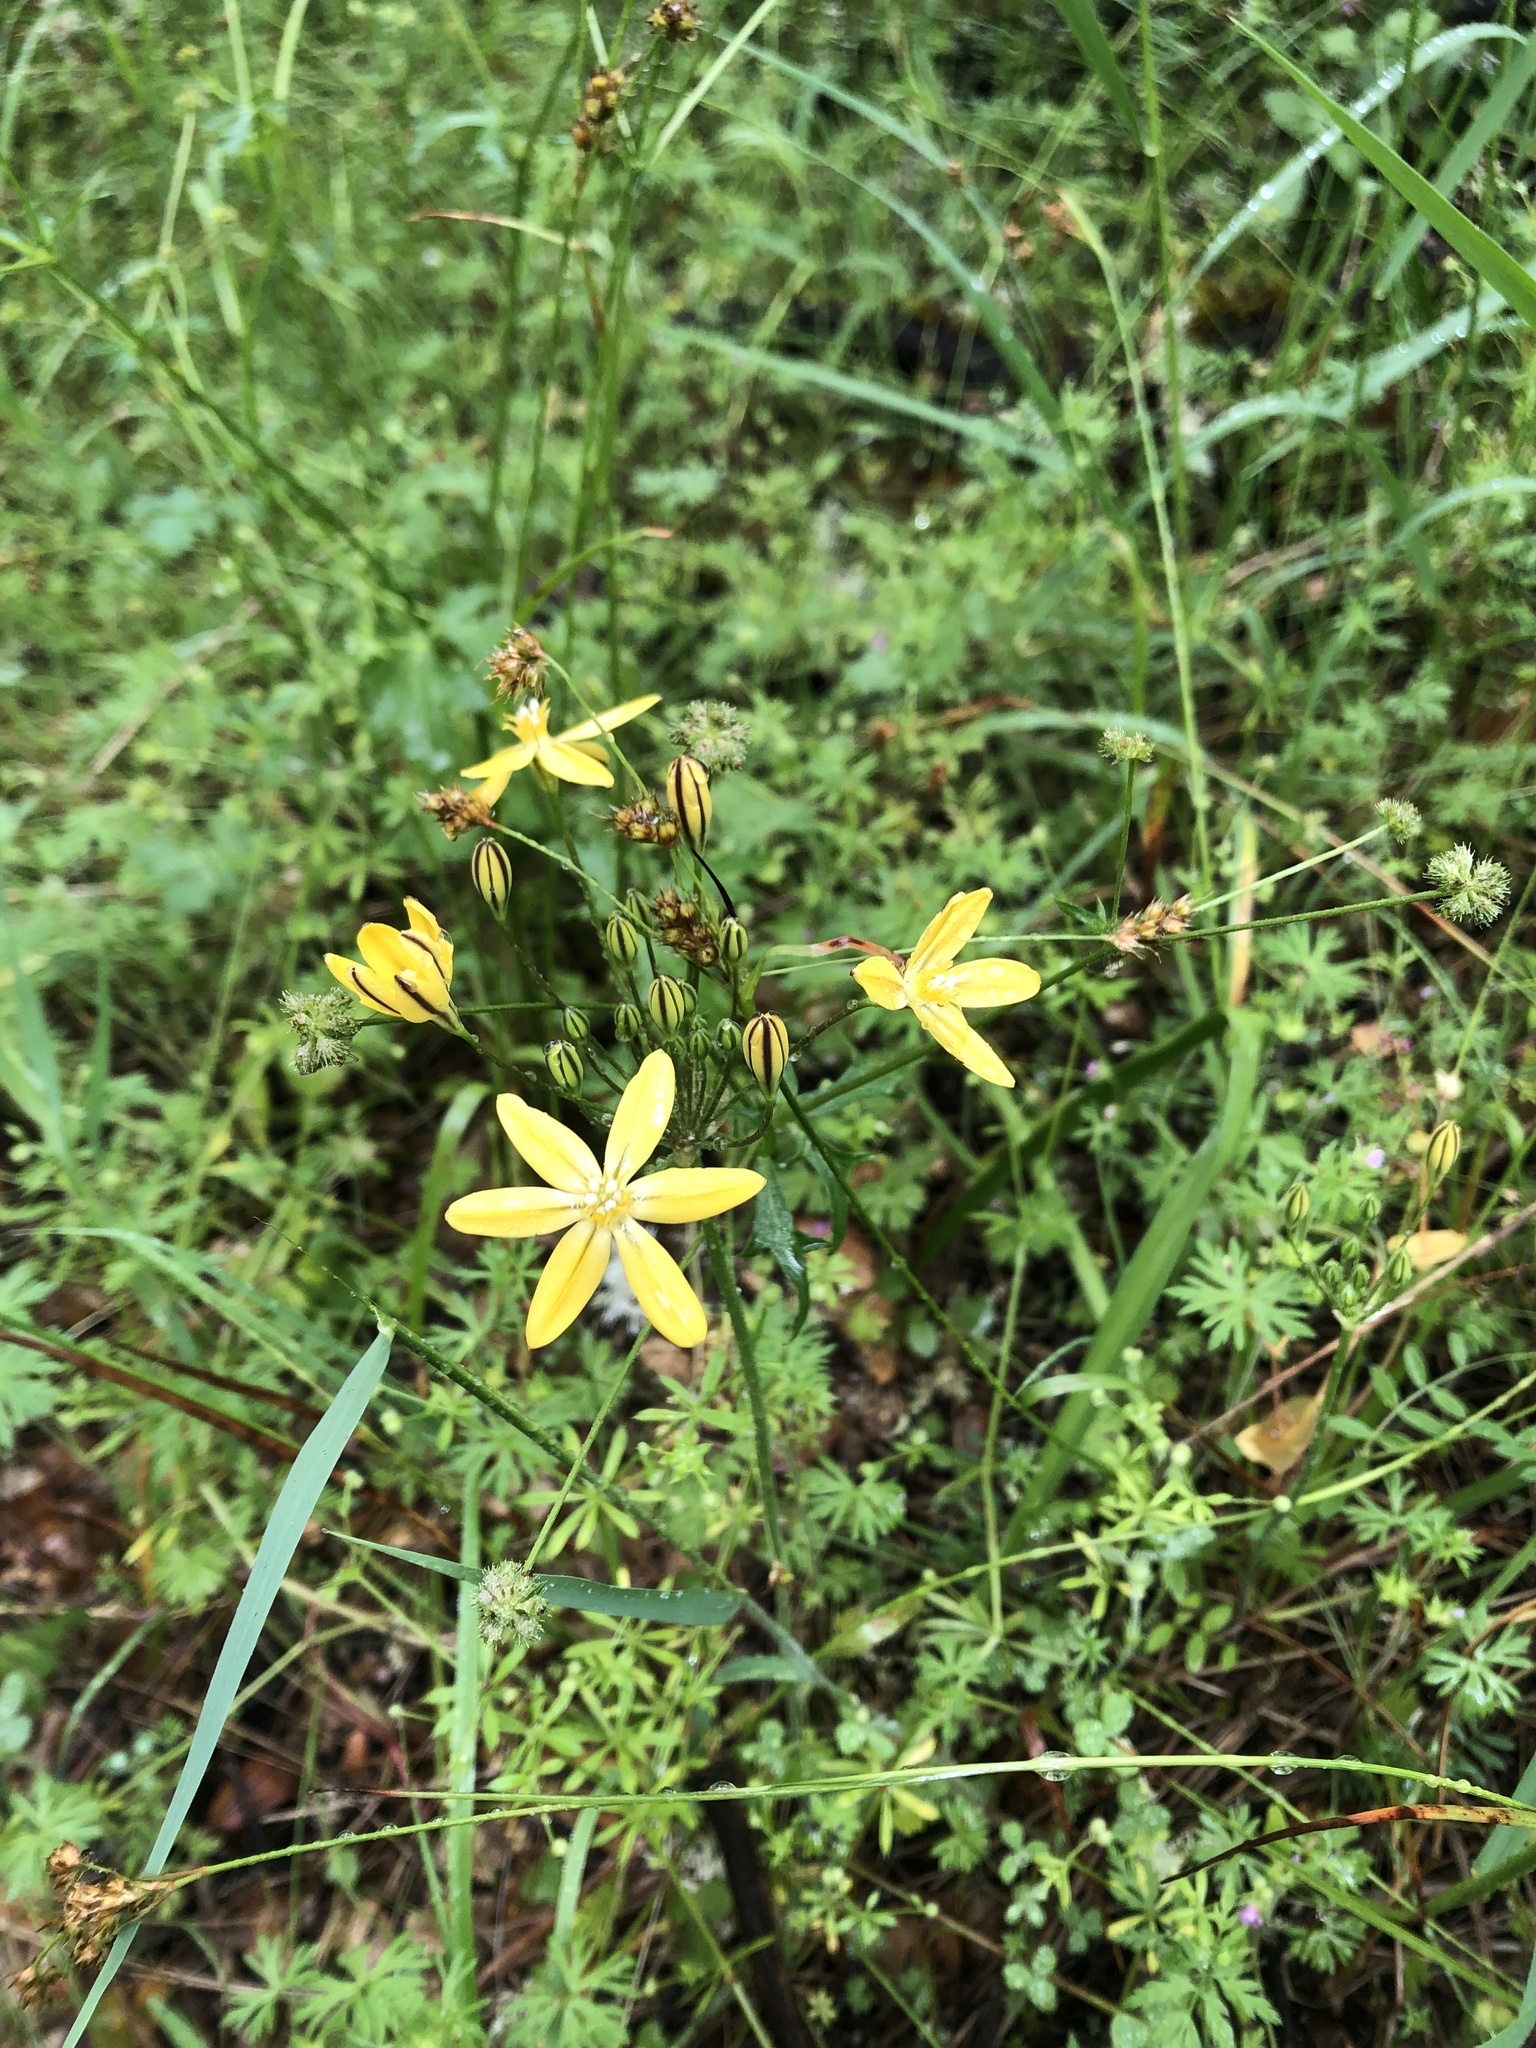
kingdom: Plantae
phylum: Tracheophyta
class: Liliopsida
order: Asparagales
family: Asparagaceae
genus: Triteleia
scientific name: Triteleia ixioides
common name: Yellow-brodiaea
